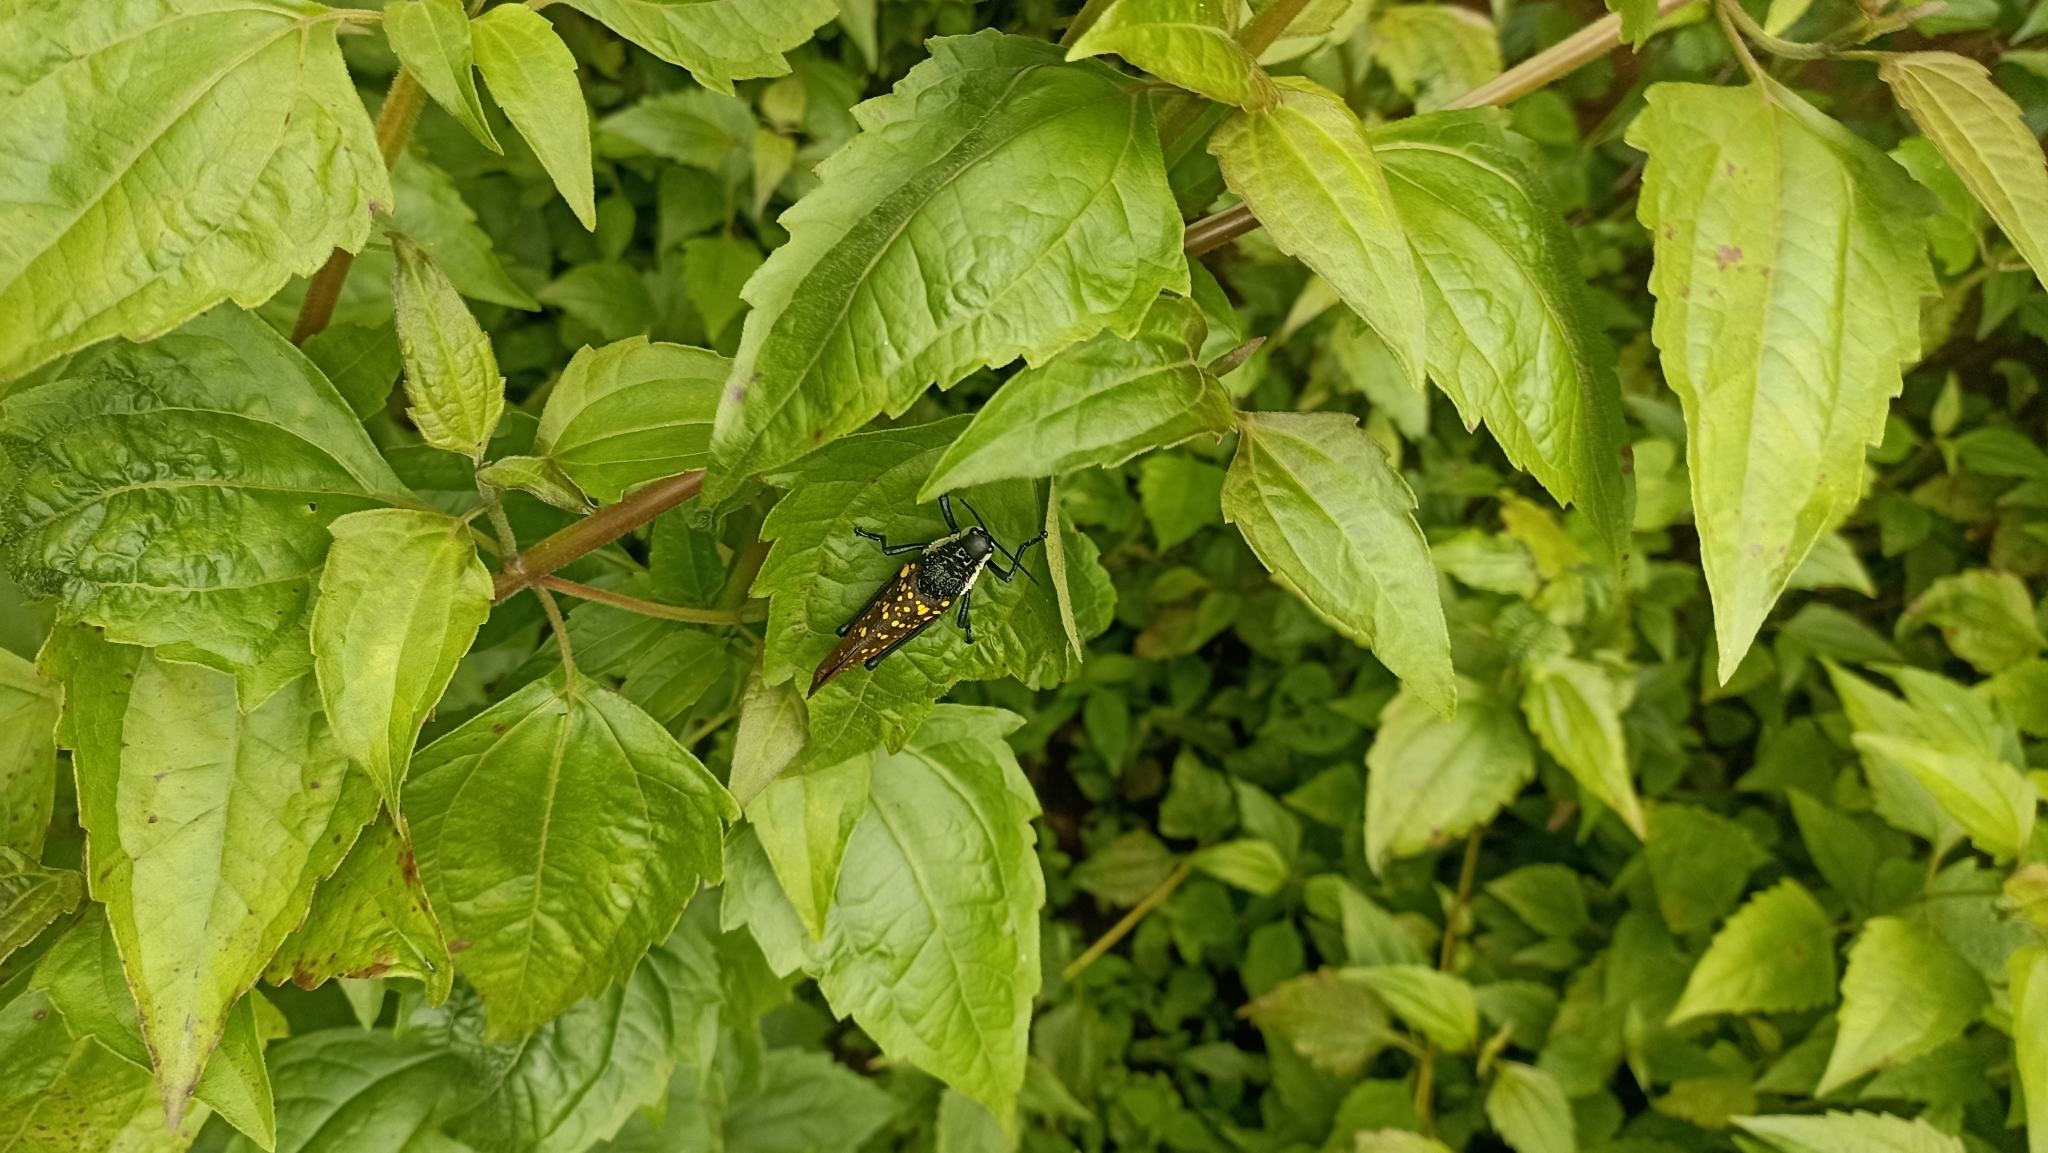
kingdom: Animalia
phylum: Arthropoda
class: Insecta
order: Orthoptera
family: Pyrgomorphidae
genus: Aularches
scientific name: Aularches miliaris
